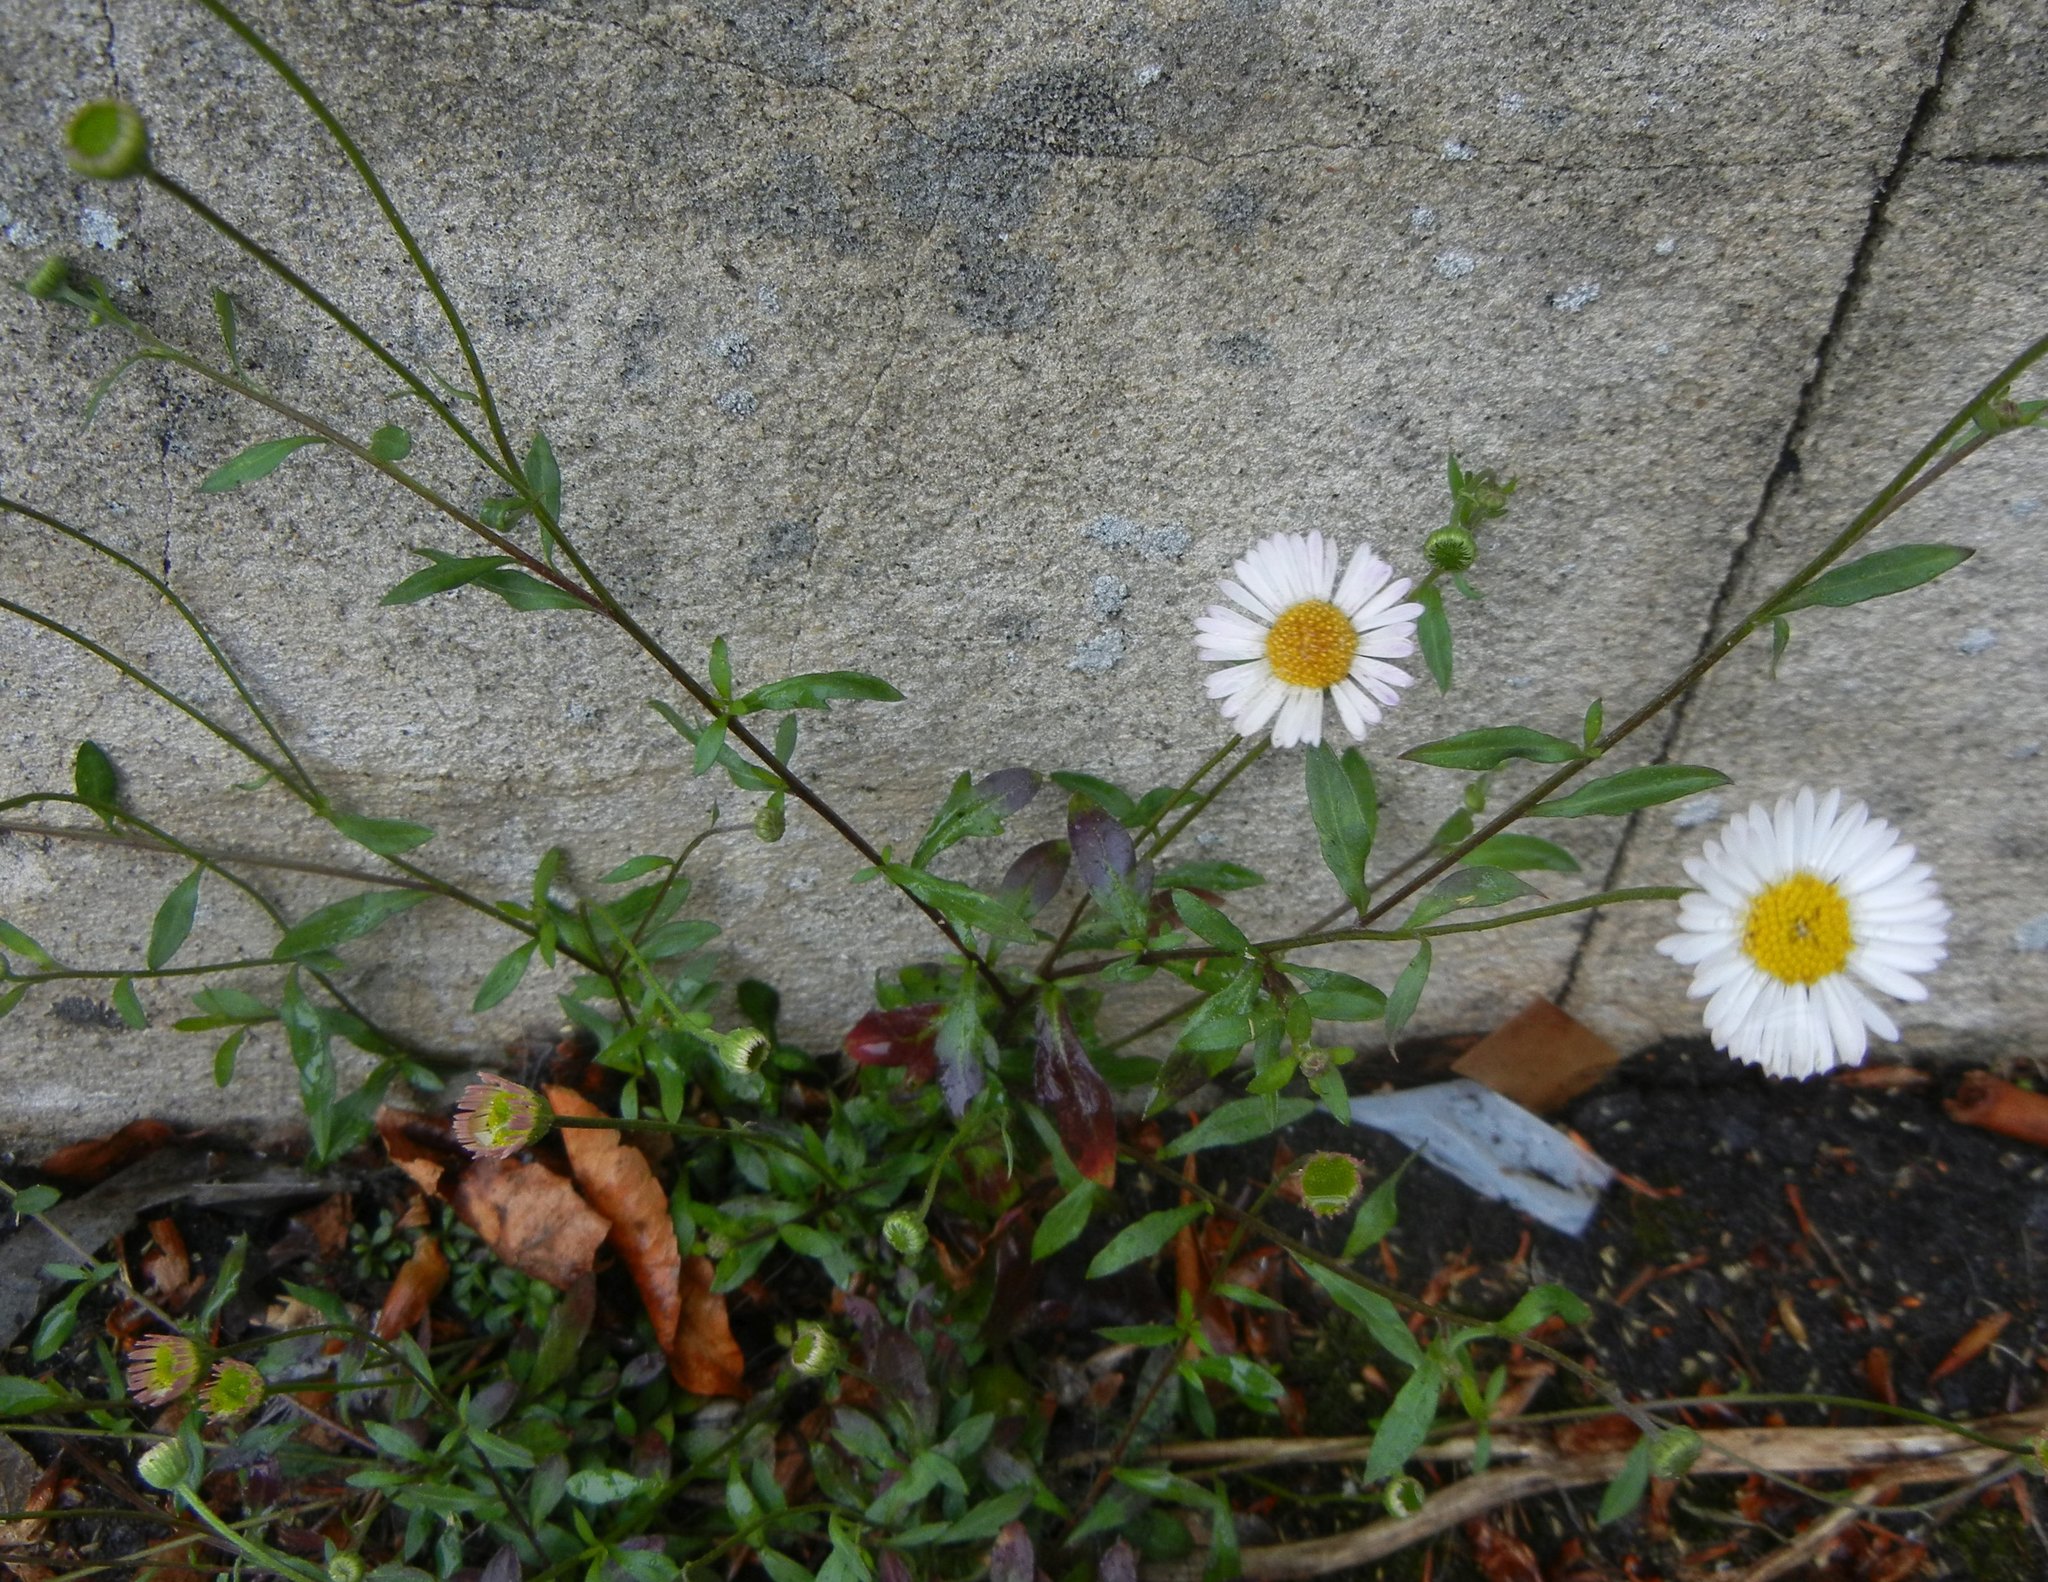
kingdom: Plantae
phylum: Tracheophyta
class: Magnoliopsida
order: Asterales
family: Asteraceae
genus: Erigeron
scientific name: Erigeron karvinskianus
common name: Mexican fleabane
